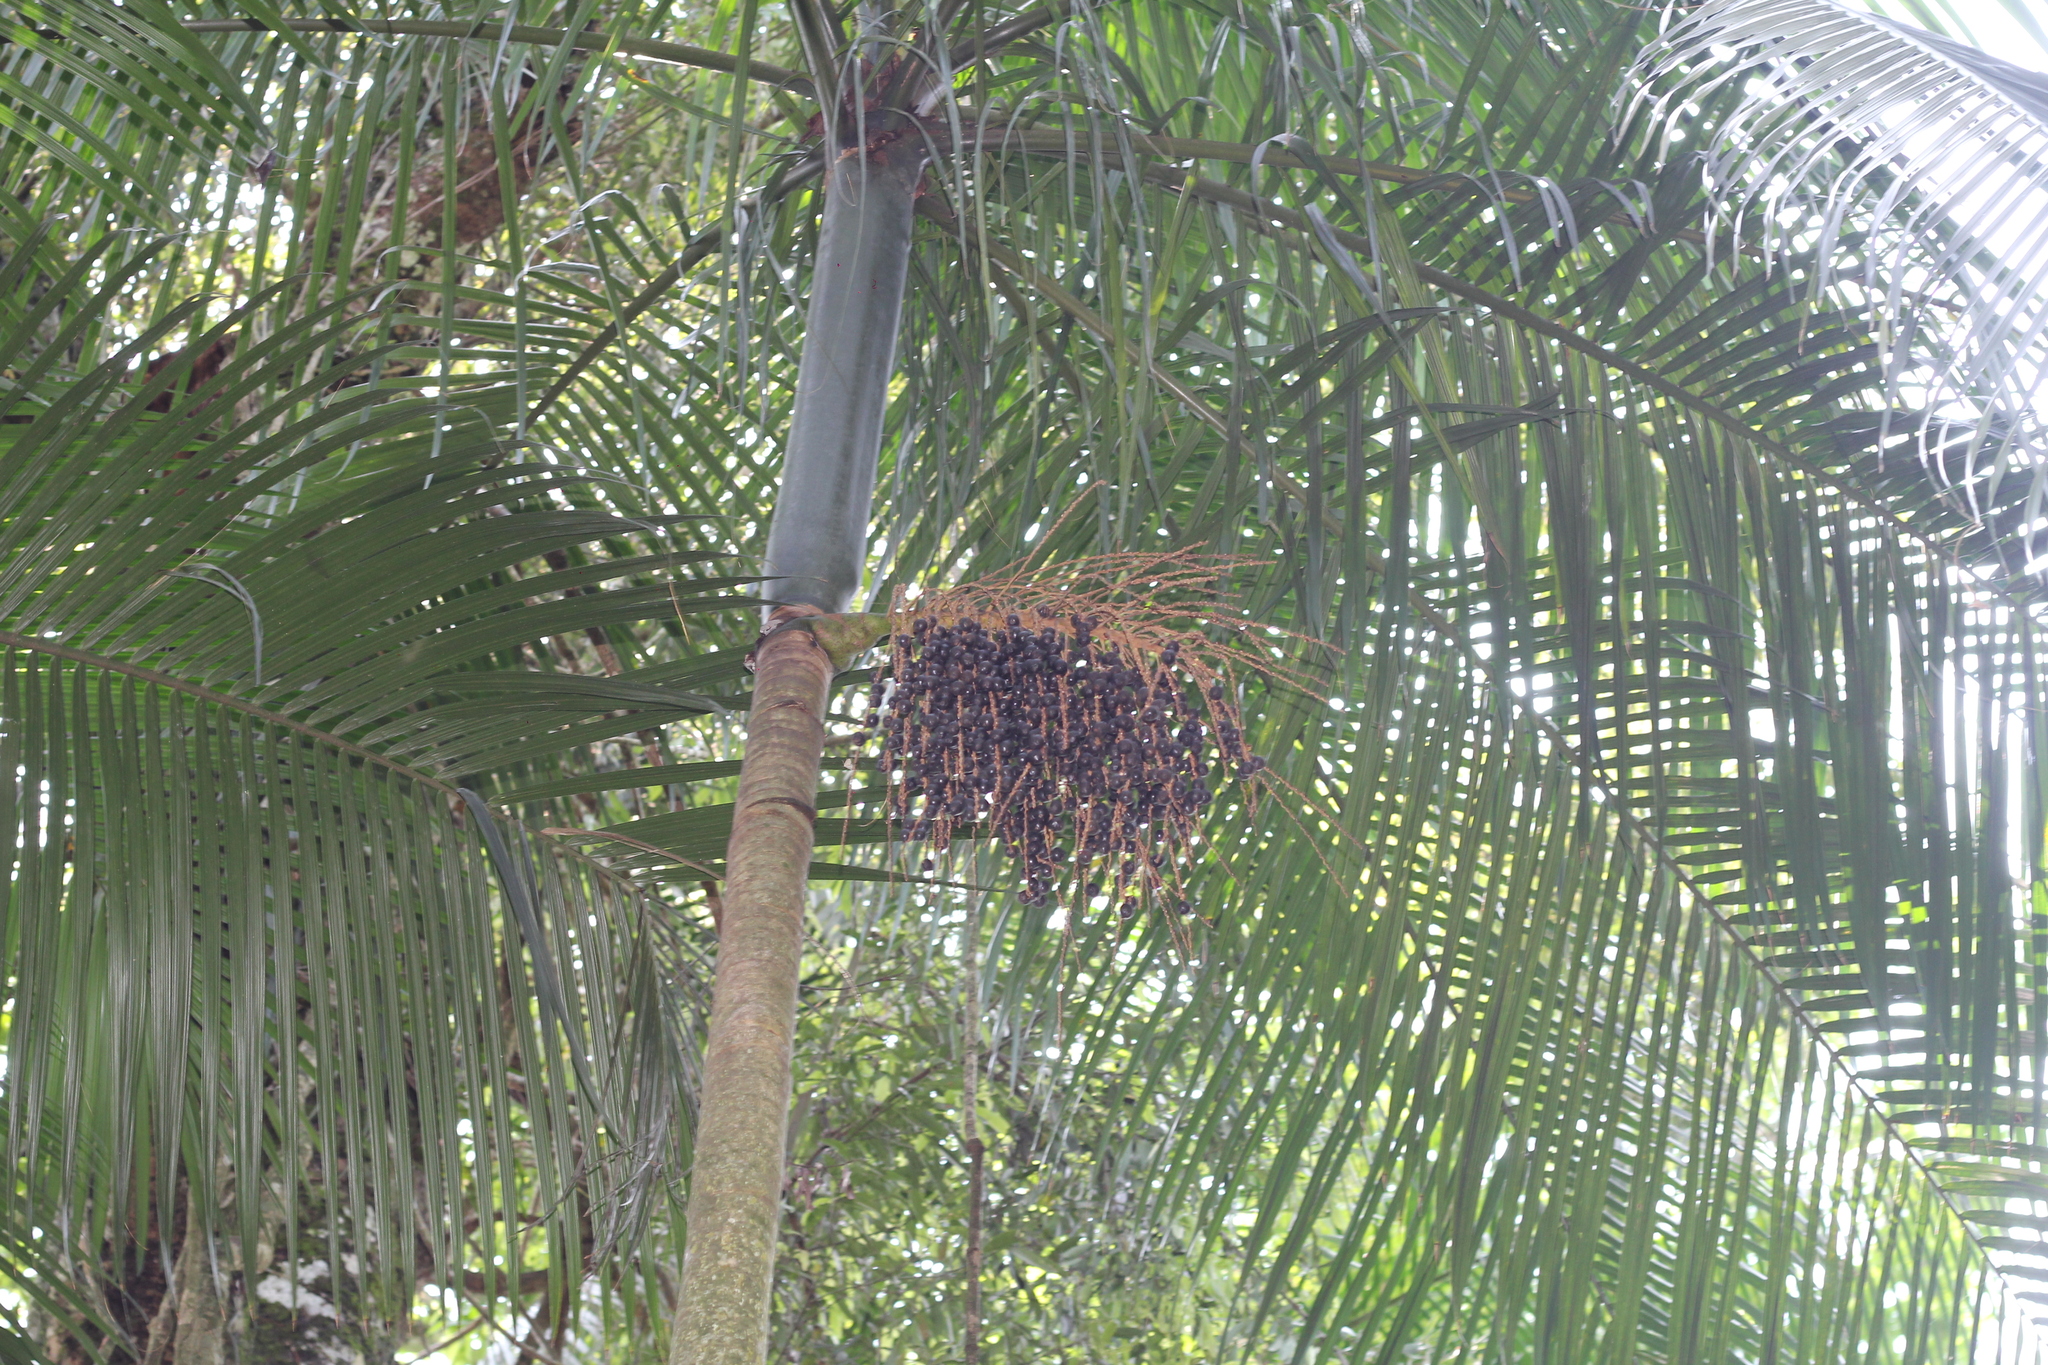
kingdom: Plantae
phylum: Tracheophyta
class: Liliopsida
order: Arecales
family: Arecaceae
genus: Euterpe
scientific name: Euterpe edulis
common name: Assai palm
